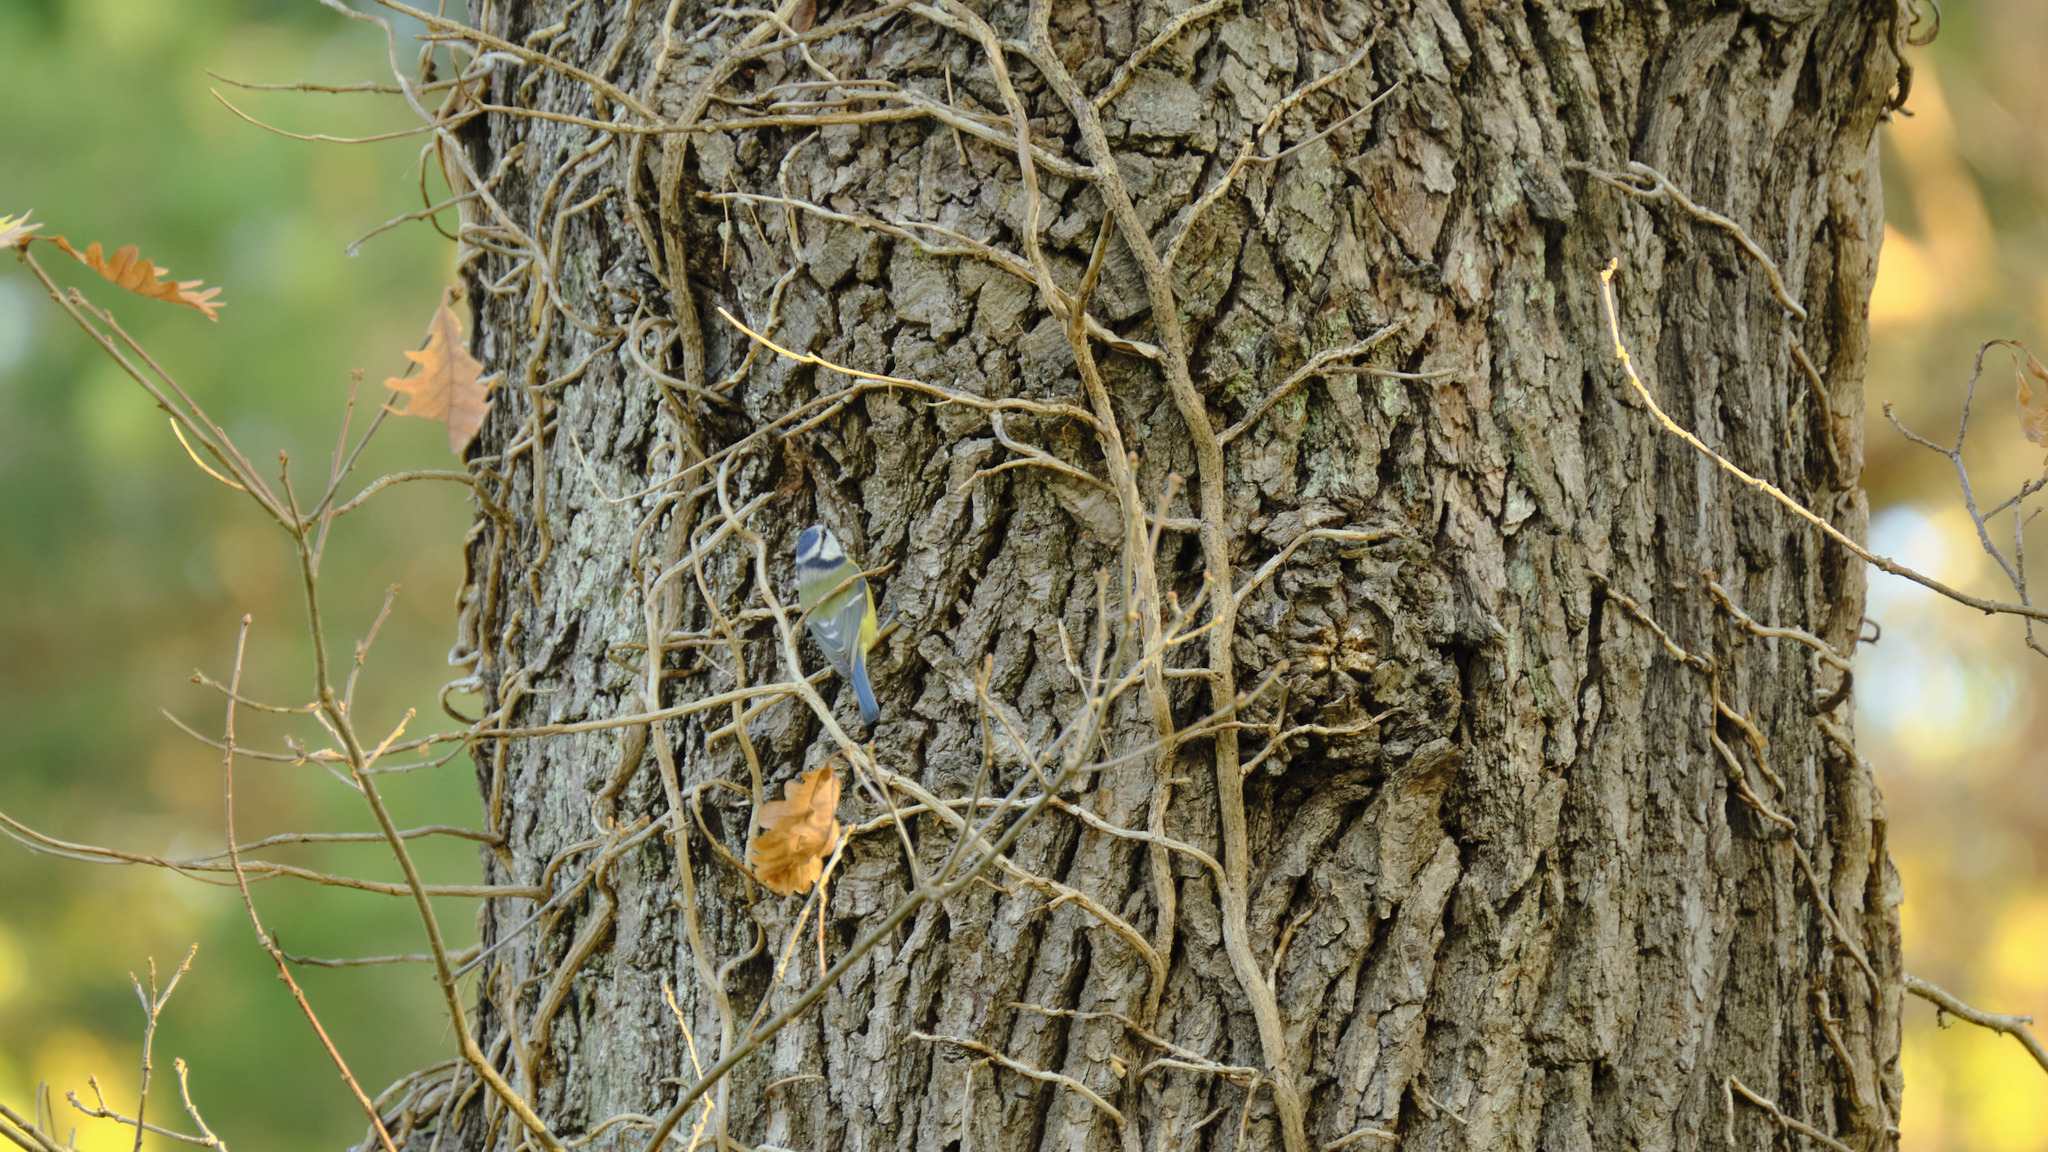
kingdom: Animalia
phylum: Chordata
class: Aves
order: Passeriformes
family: Paridae
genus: Cyanistes
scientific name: Cyanistes caeruleus
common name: Eurasian blue tit
